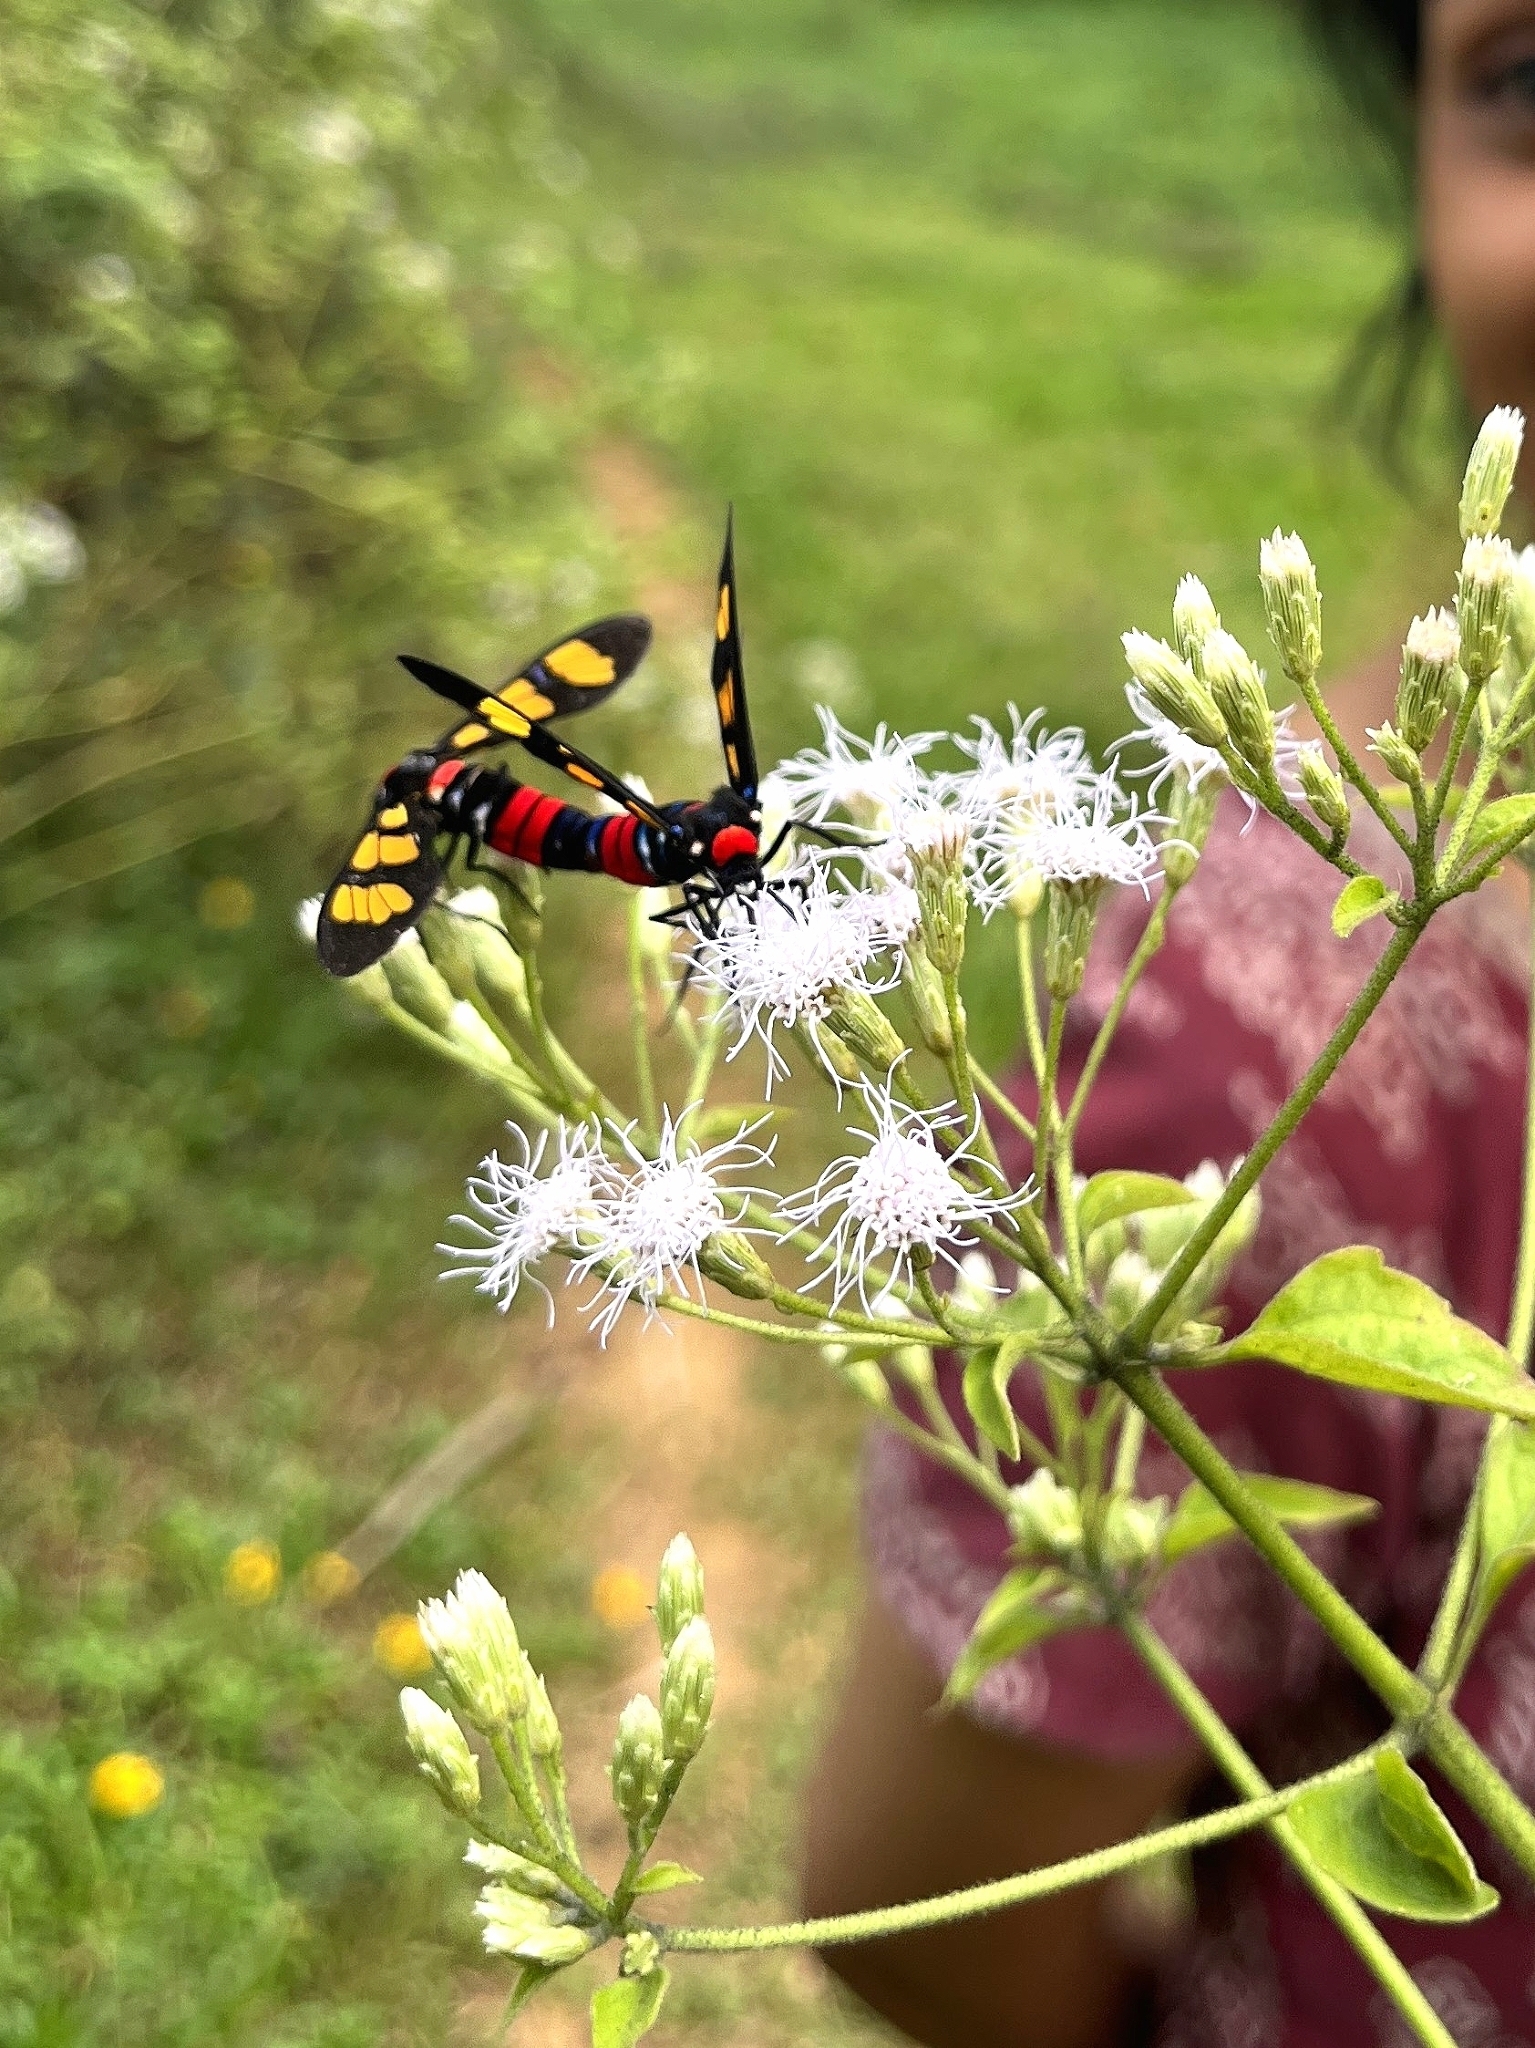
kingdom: Animalia
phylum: Arthropoda
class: Insecta
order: Lepidoptera
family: Erebidae
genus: Euchromia
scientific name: Euchromia polymena
